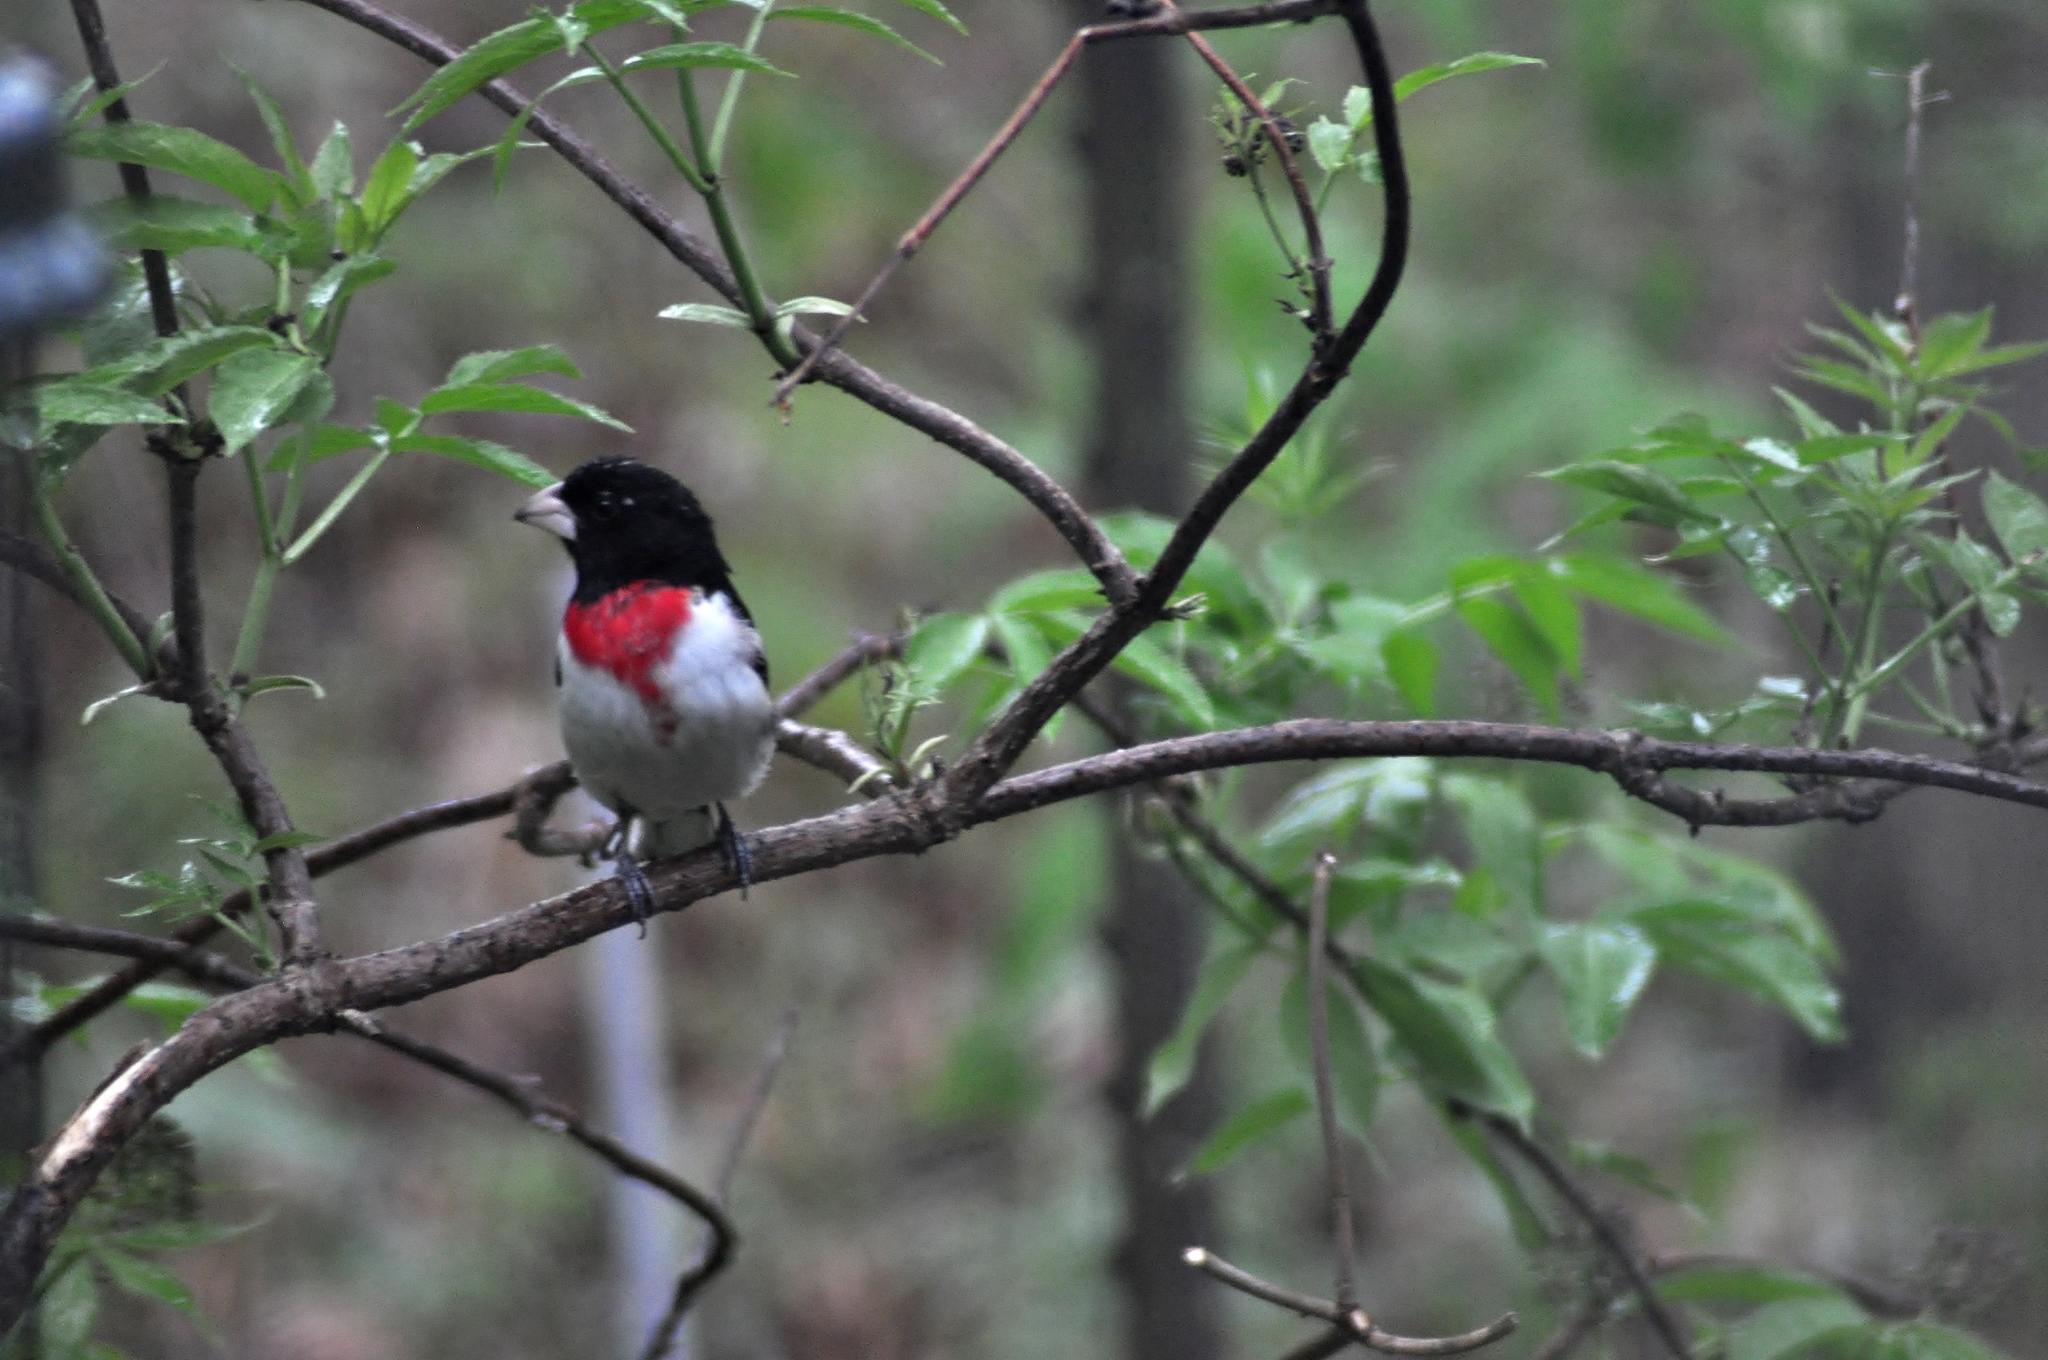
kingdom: Animalia
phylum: Chordata
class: Aves
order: Passeriformes
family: Cardinalidae
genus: Pheucticus
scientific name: Pheucticus ludovicianus
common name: Rose-breasted grosbeak
